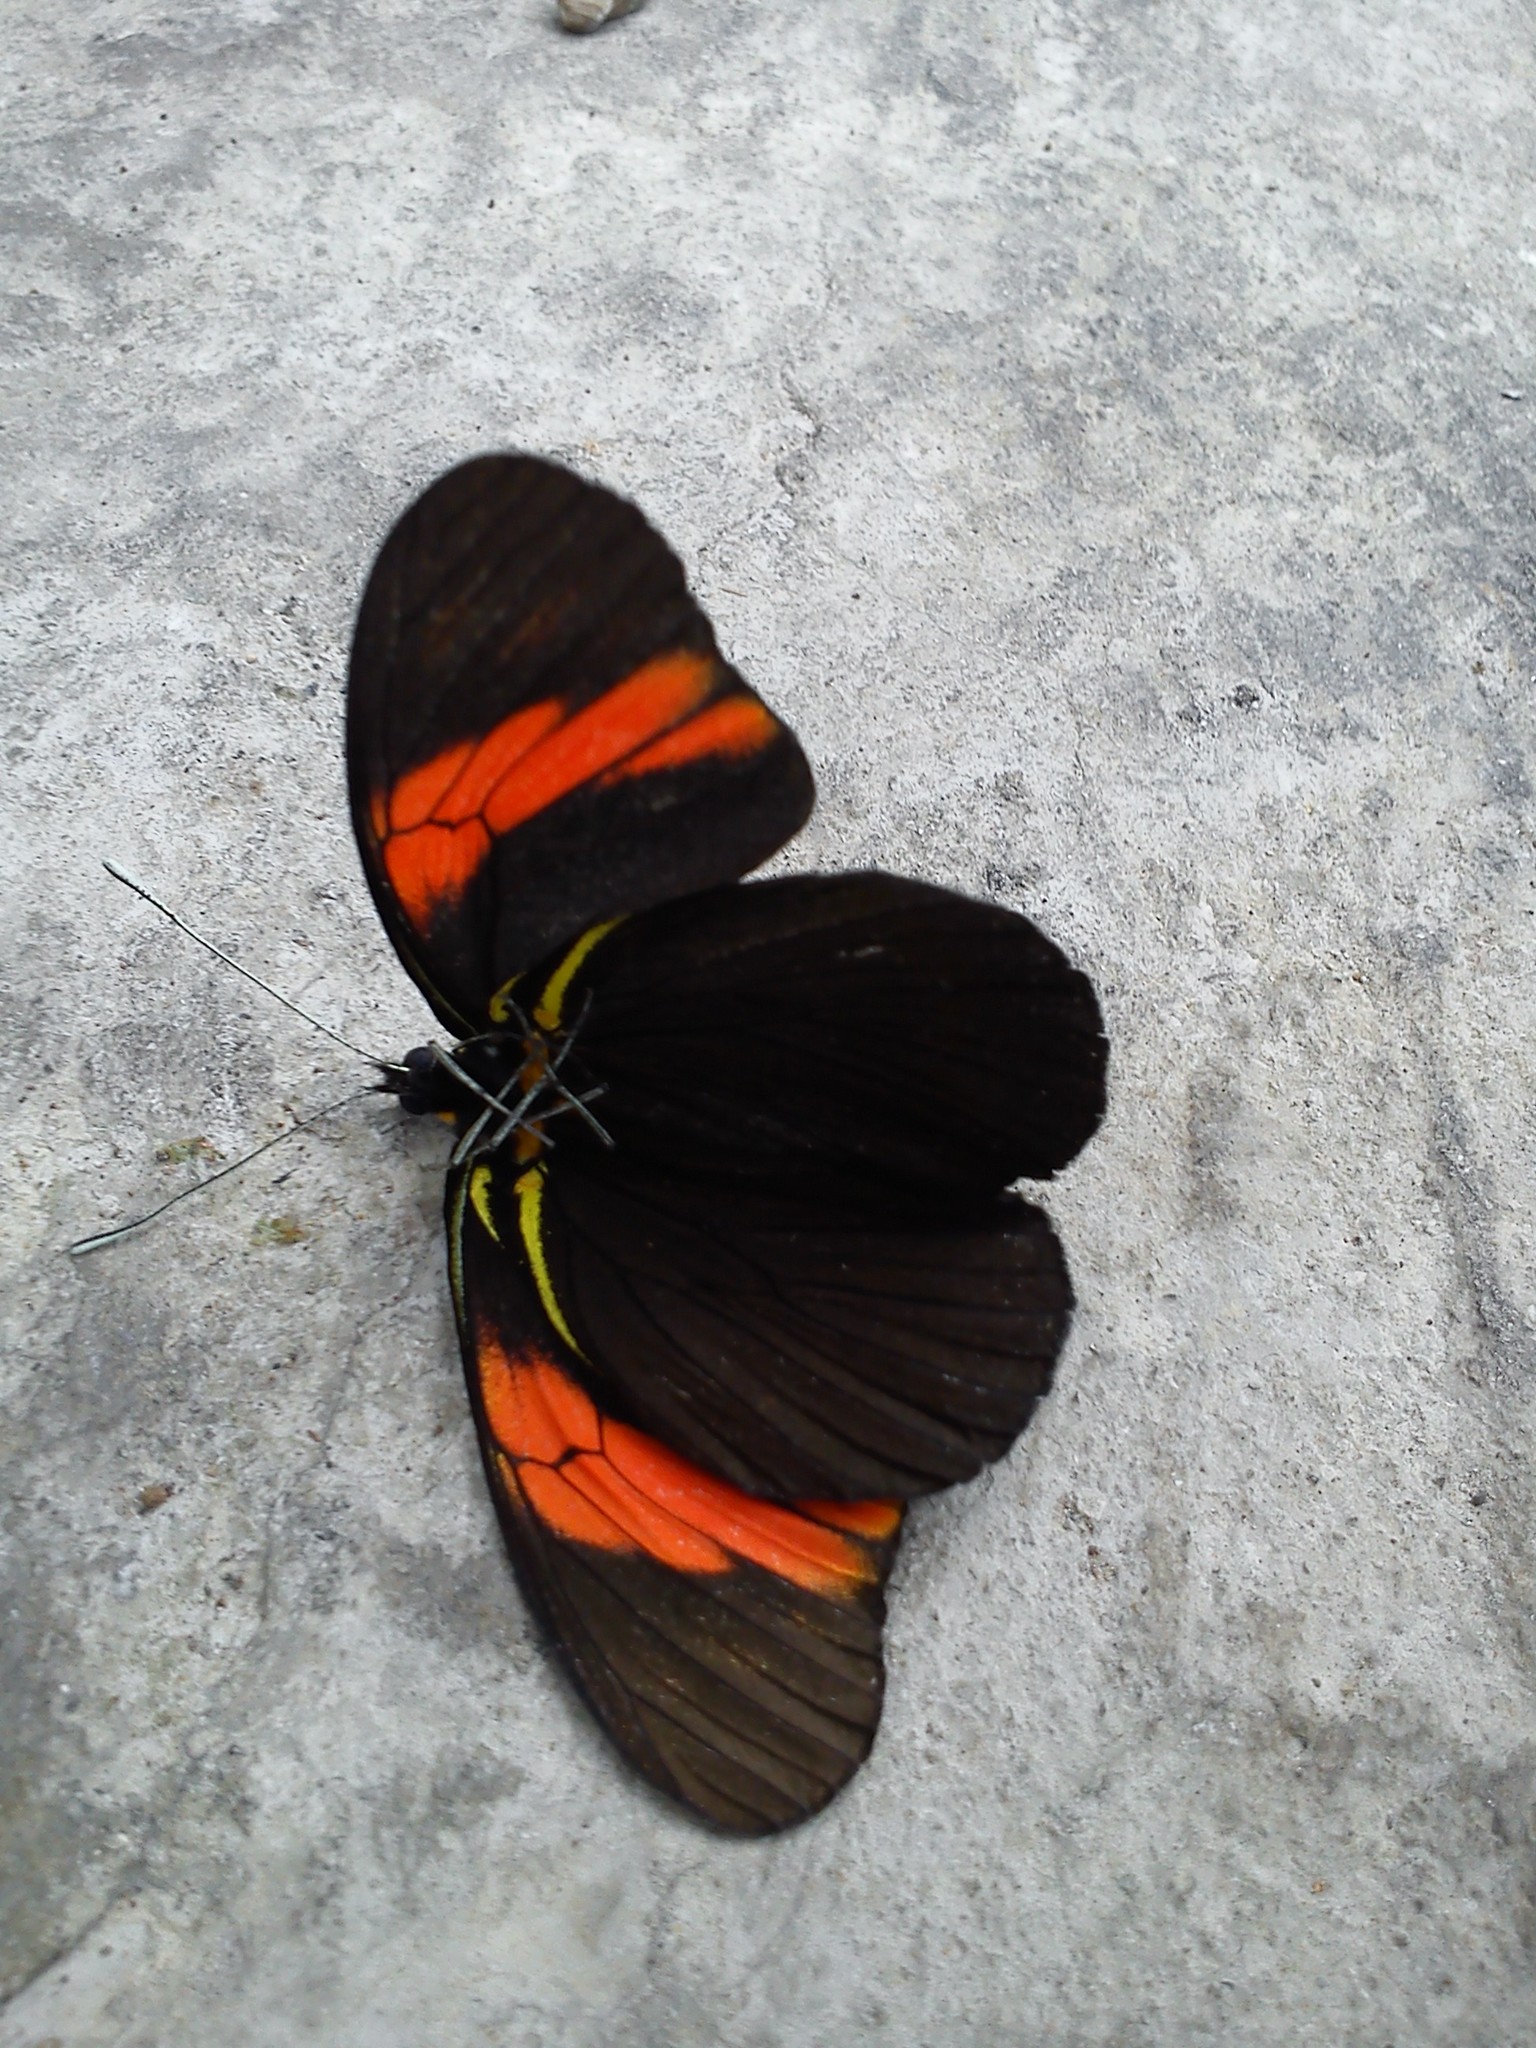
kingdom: Animalia
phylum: Arthropoda
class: Insecta
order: Lepidoptera
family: Pieridae
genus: Pereute
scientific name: Pereute charops
